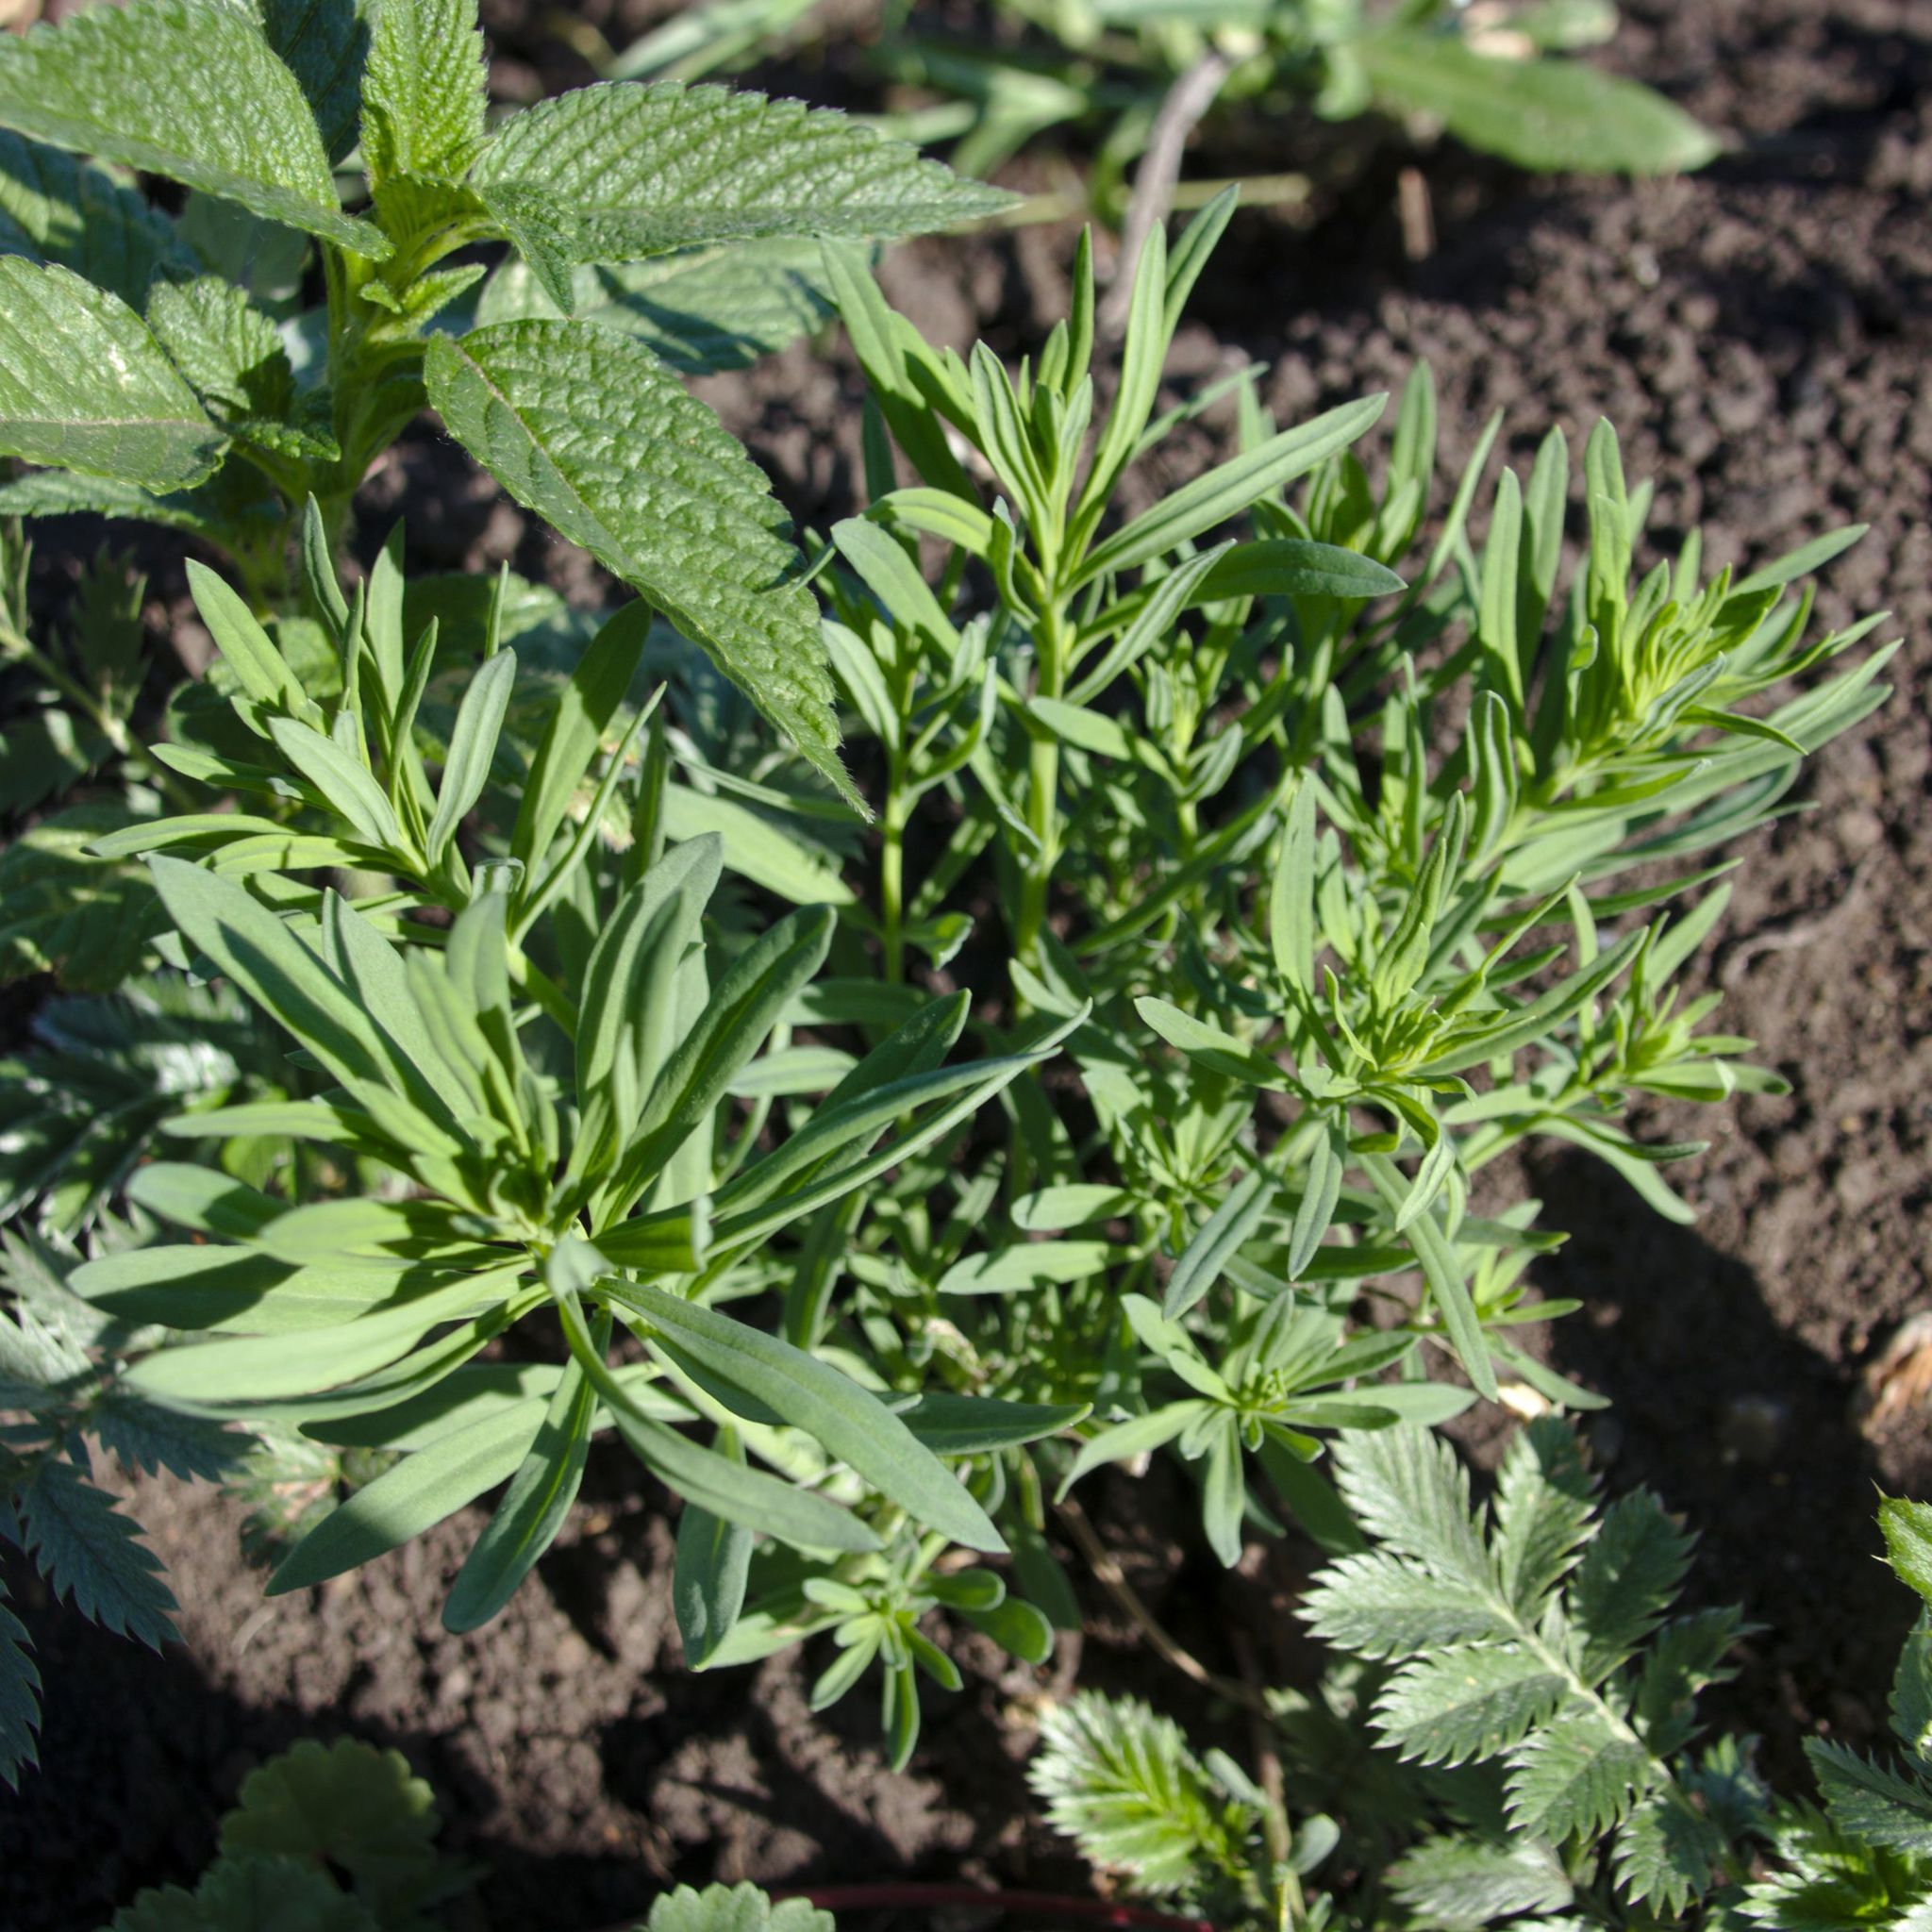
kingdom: Plantae
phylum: Tracheophyta
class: Magnoliopsida
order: Lamiales
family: Plantaginaceae
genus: Linaria
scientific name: Linaria vulgaris
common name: Butter and eggs
